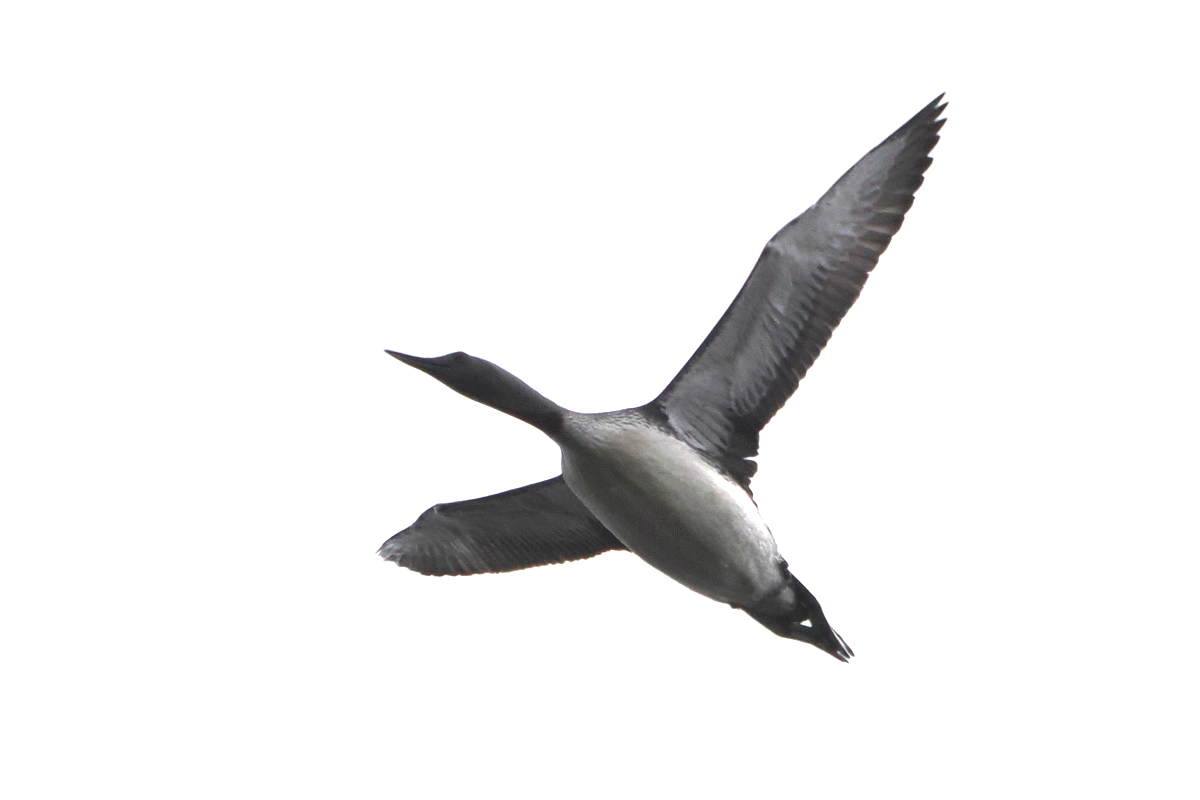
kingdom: Animalia
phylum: Chordata
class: Aves
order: Gaviiformes
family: Gaviidae
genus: Gavia
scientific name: Gavia stellata
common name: Red-throated loon
